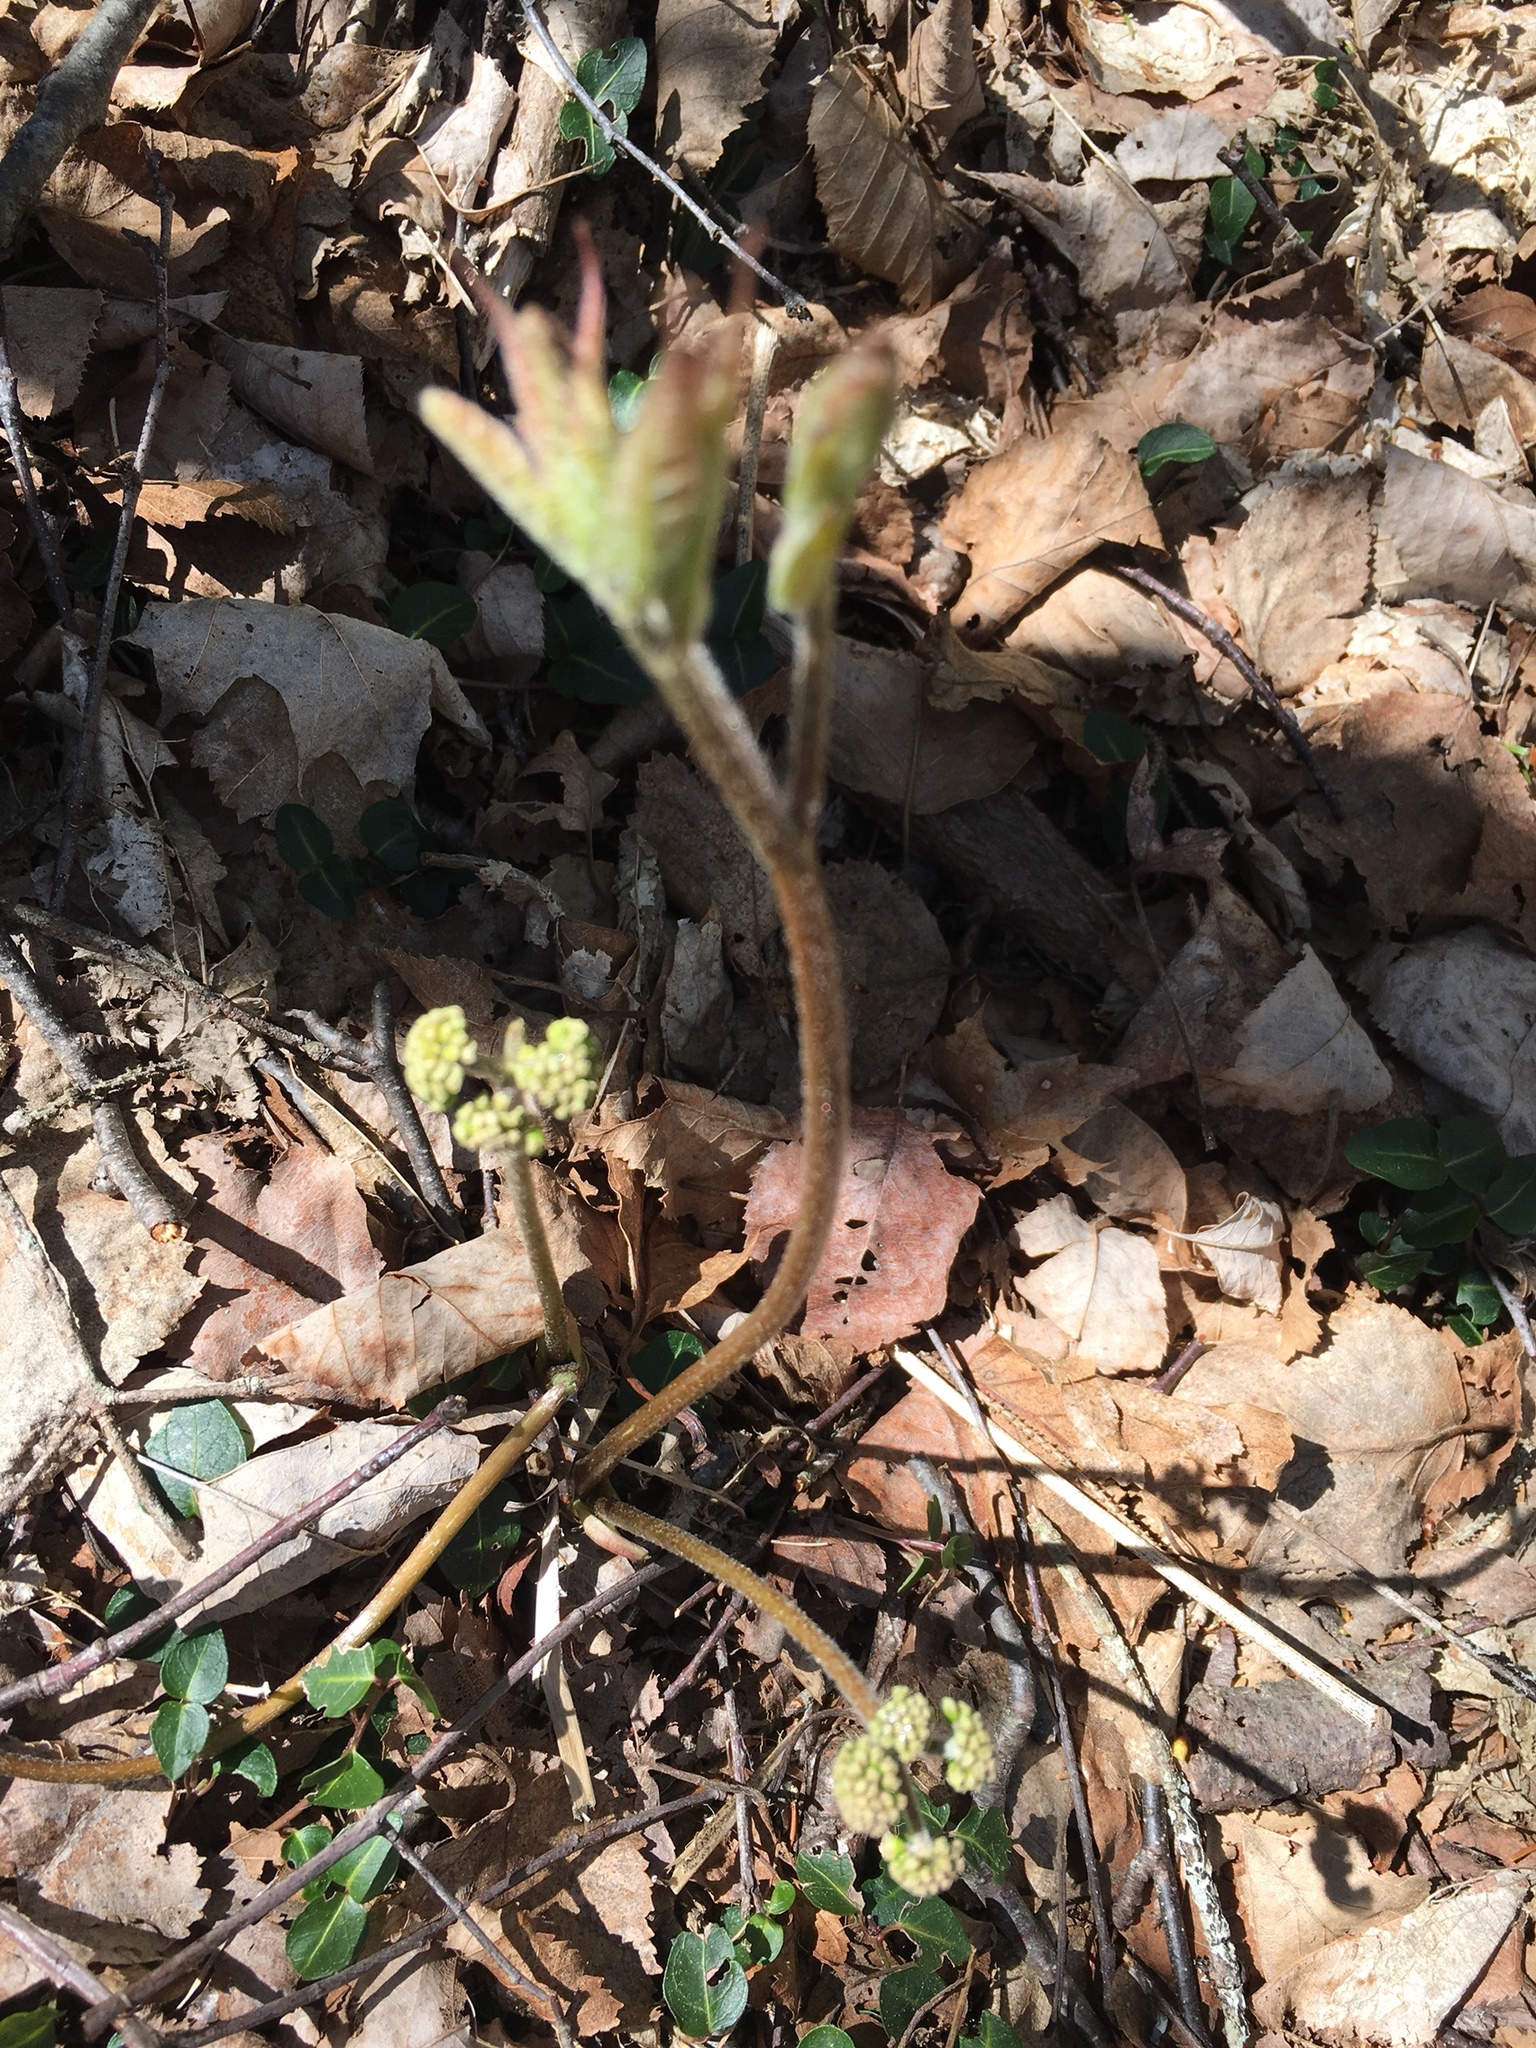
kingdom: Plantae
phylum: Tracheophyta
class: Magnoliopsida
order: Apiales
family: Araliaceae
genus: Aralia
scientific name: Aralia nudicaulis
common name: Wild sarsaparilla
